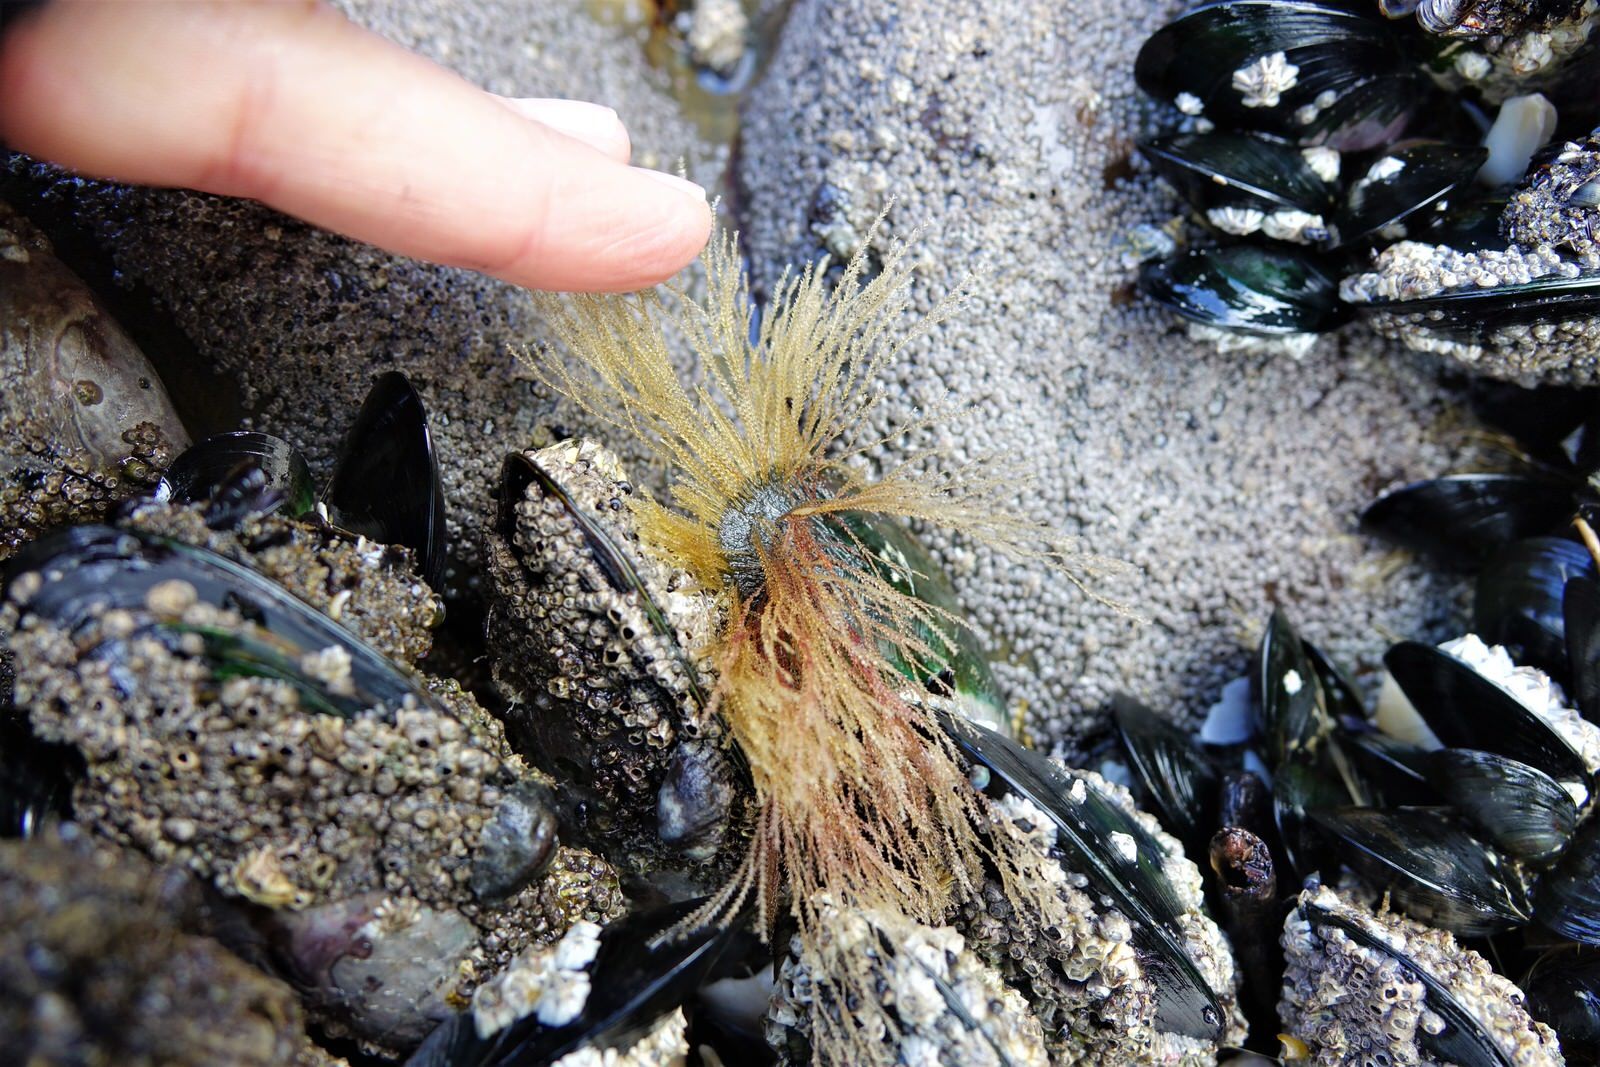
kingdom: Animalia
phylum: Cnidaria
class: Hydrozoa
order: Leptothecata
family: Sertulariidae
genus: Amphisbetia
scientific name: Amphisbetia bispinosa
